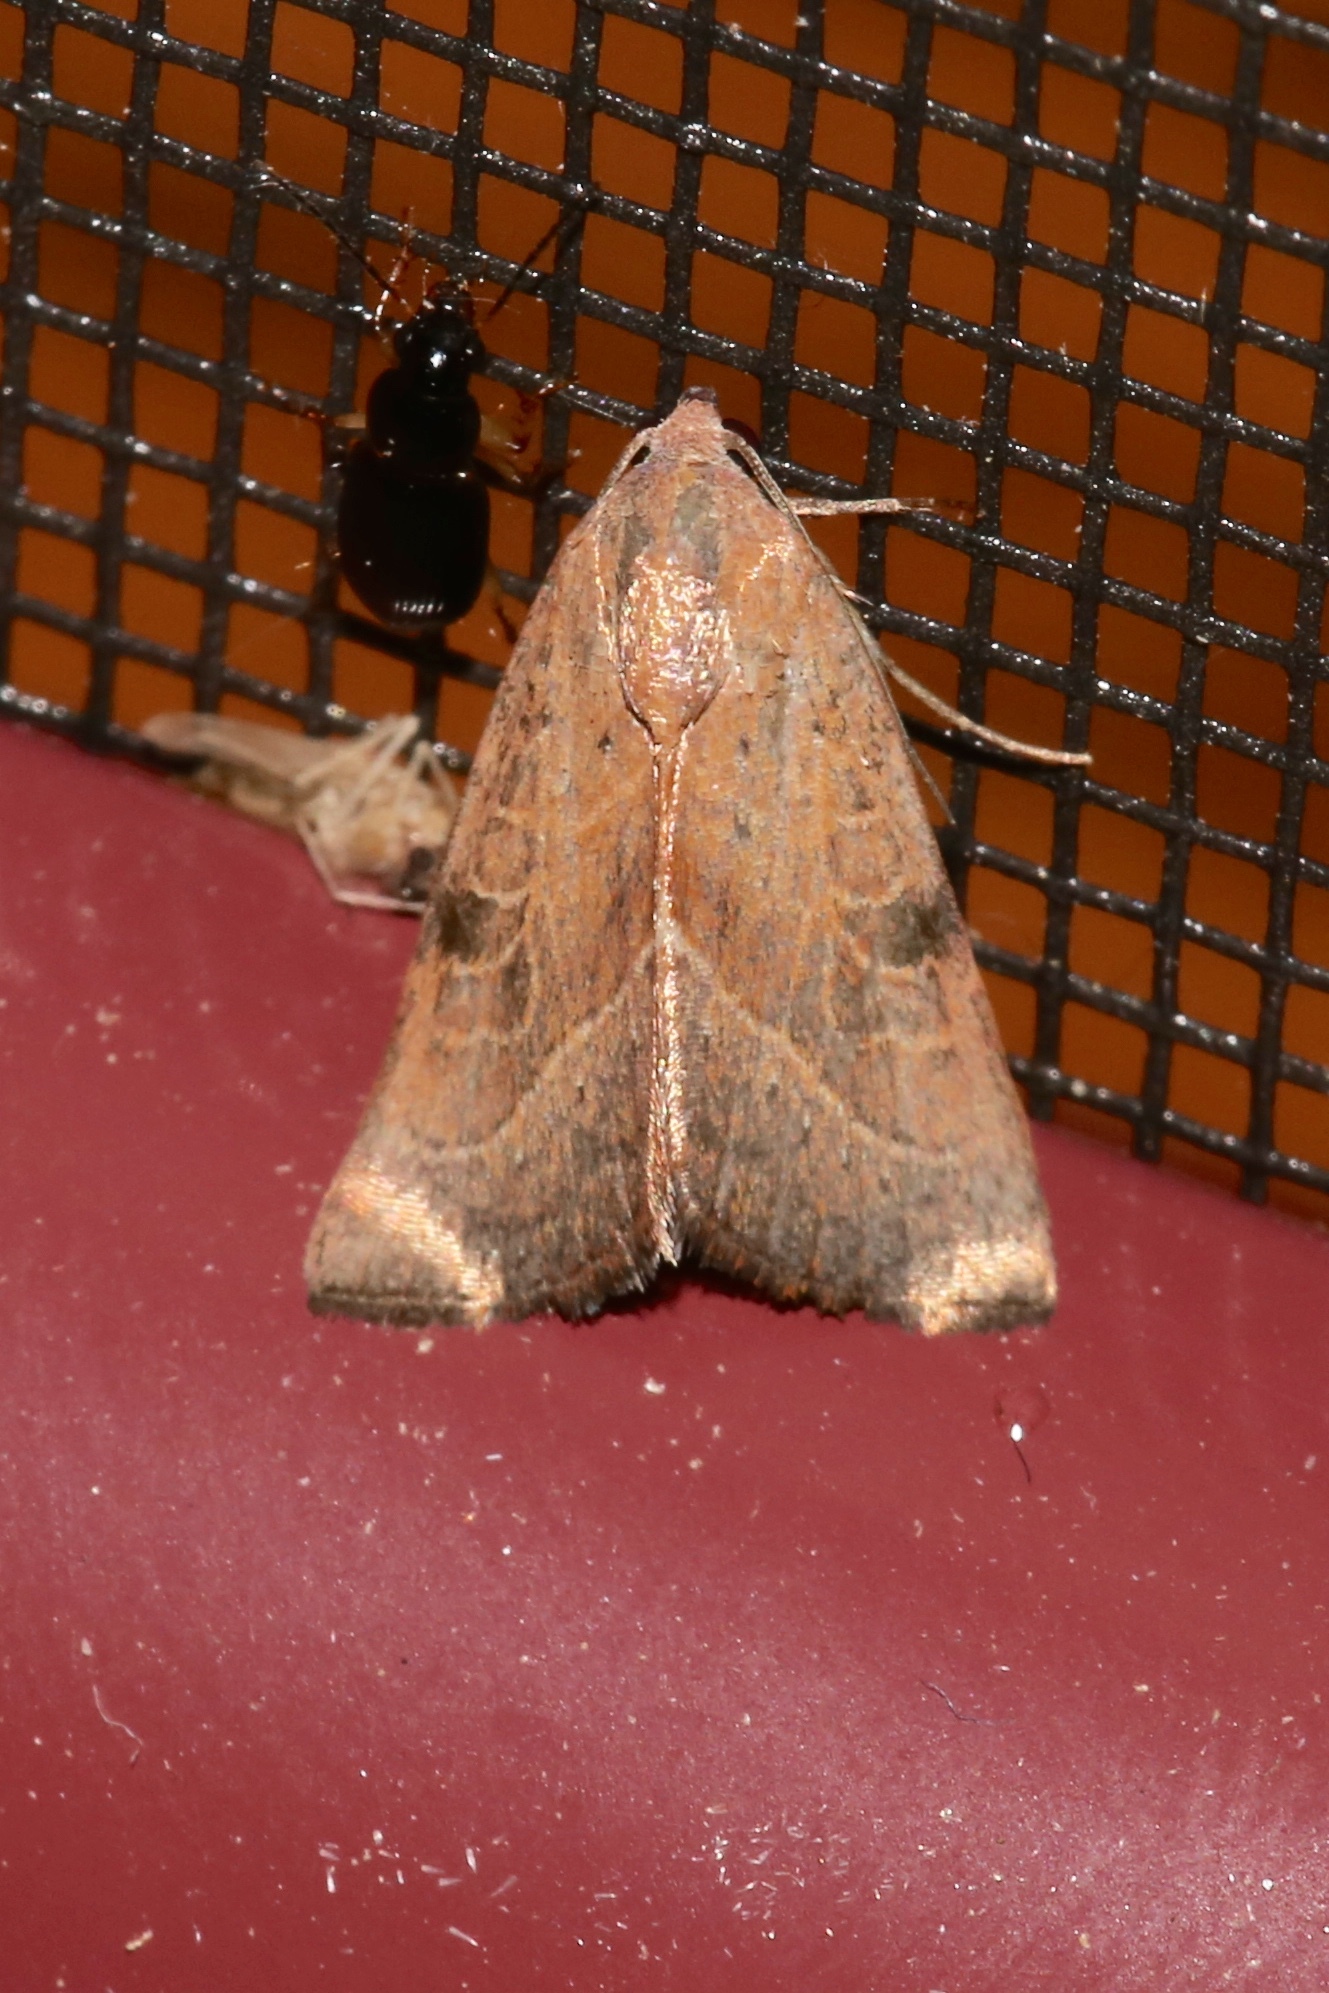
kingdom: Animalia
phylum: Arthropoda
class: Insecta
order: Lepidoptera
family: Noctuidae
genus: Galgula
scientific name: Galgula partita
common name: Wedgeling
